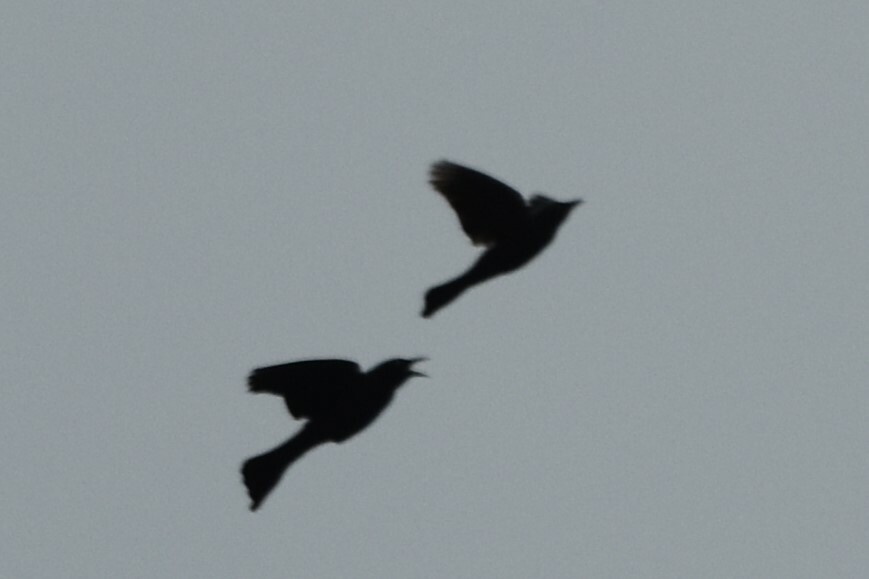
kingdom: Animalia
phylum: Chordata
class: Aves
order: Passeriformes
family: Icteridae
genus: Quiscalus
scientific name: Quiscalus quiscula
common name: Common grackle
